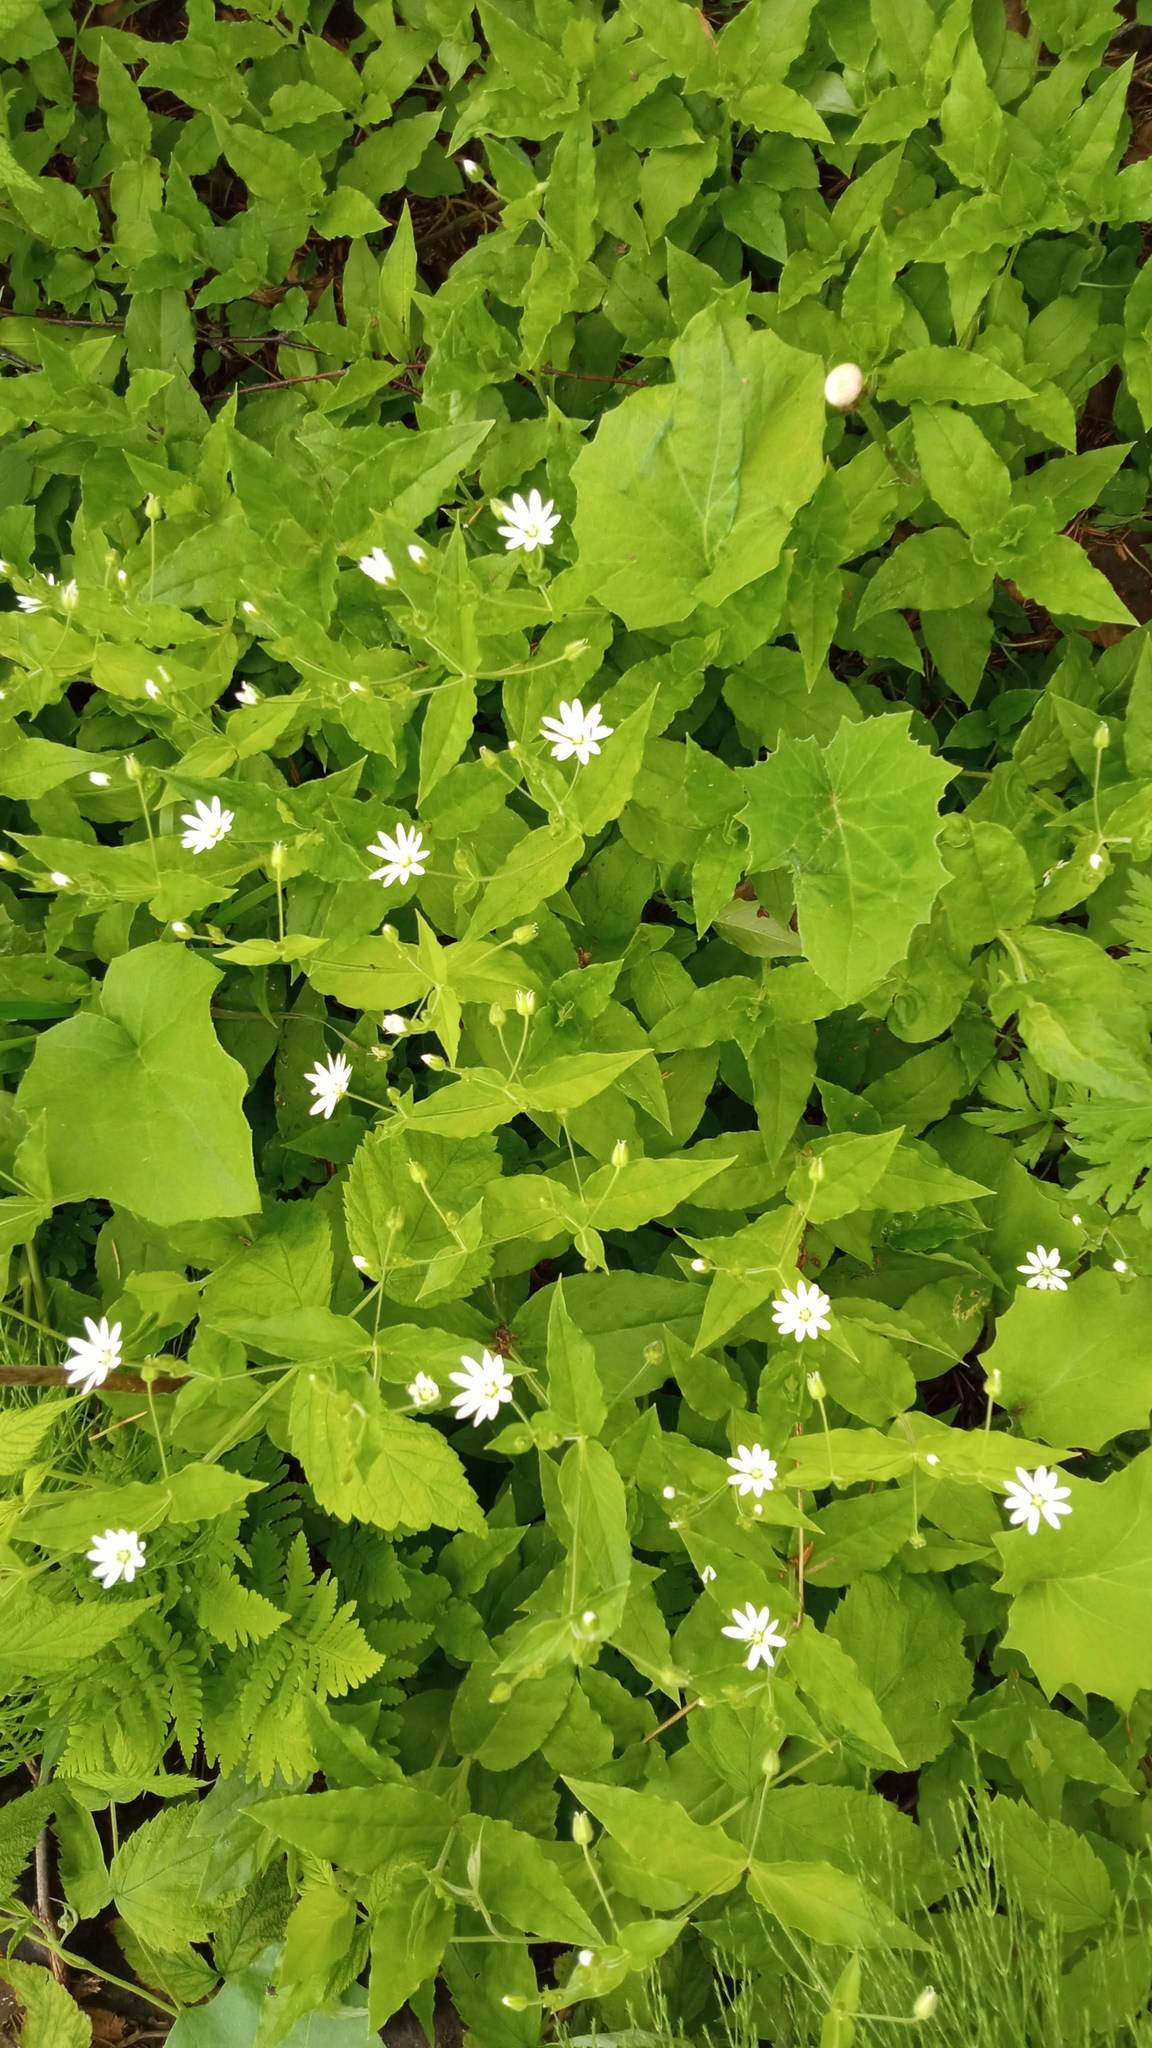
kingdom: Plantae
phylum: Tracheophyta
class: Magnoliopsida
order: Caryophyllales
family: Caryophyllaceae
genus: Stellaria
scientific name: Stellaria bungeana
